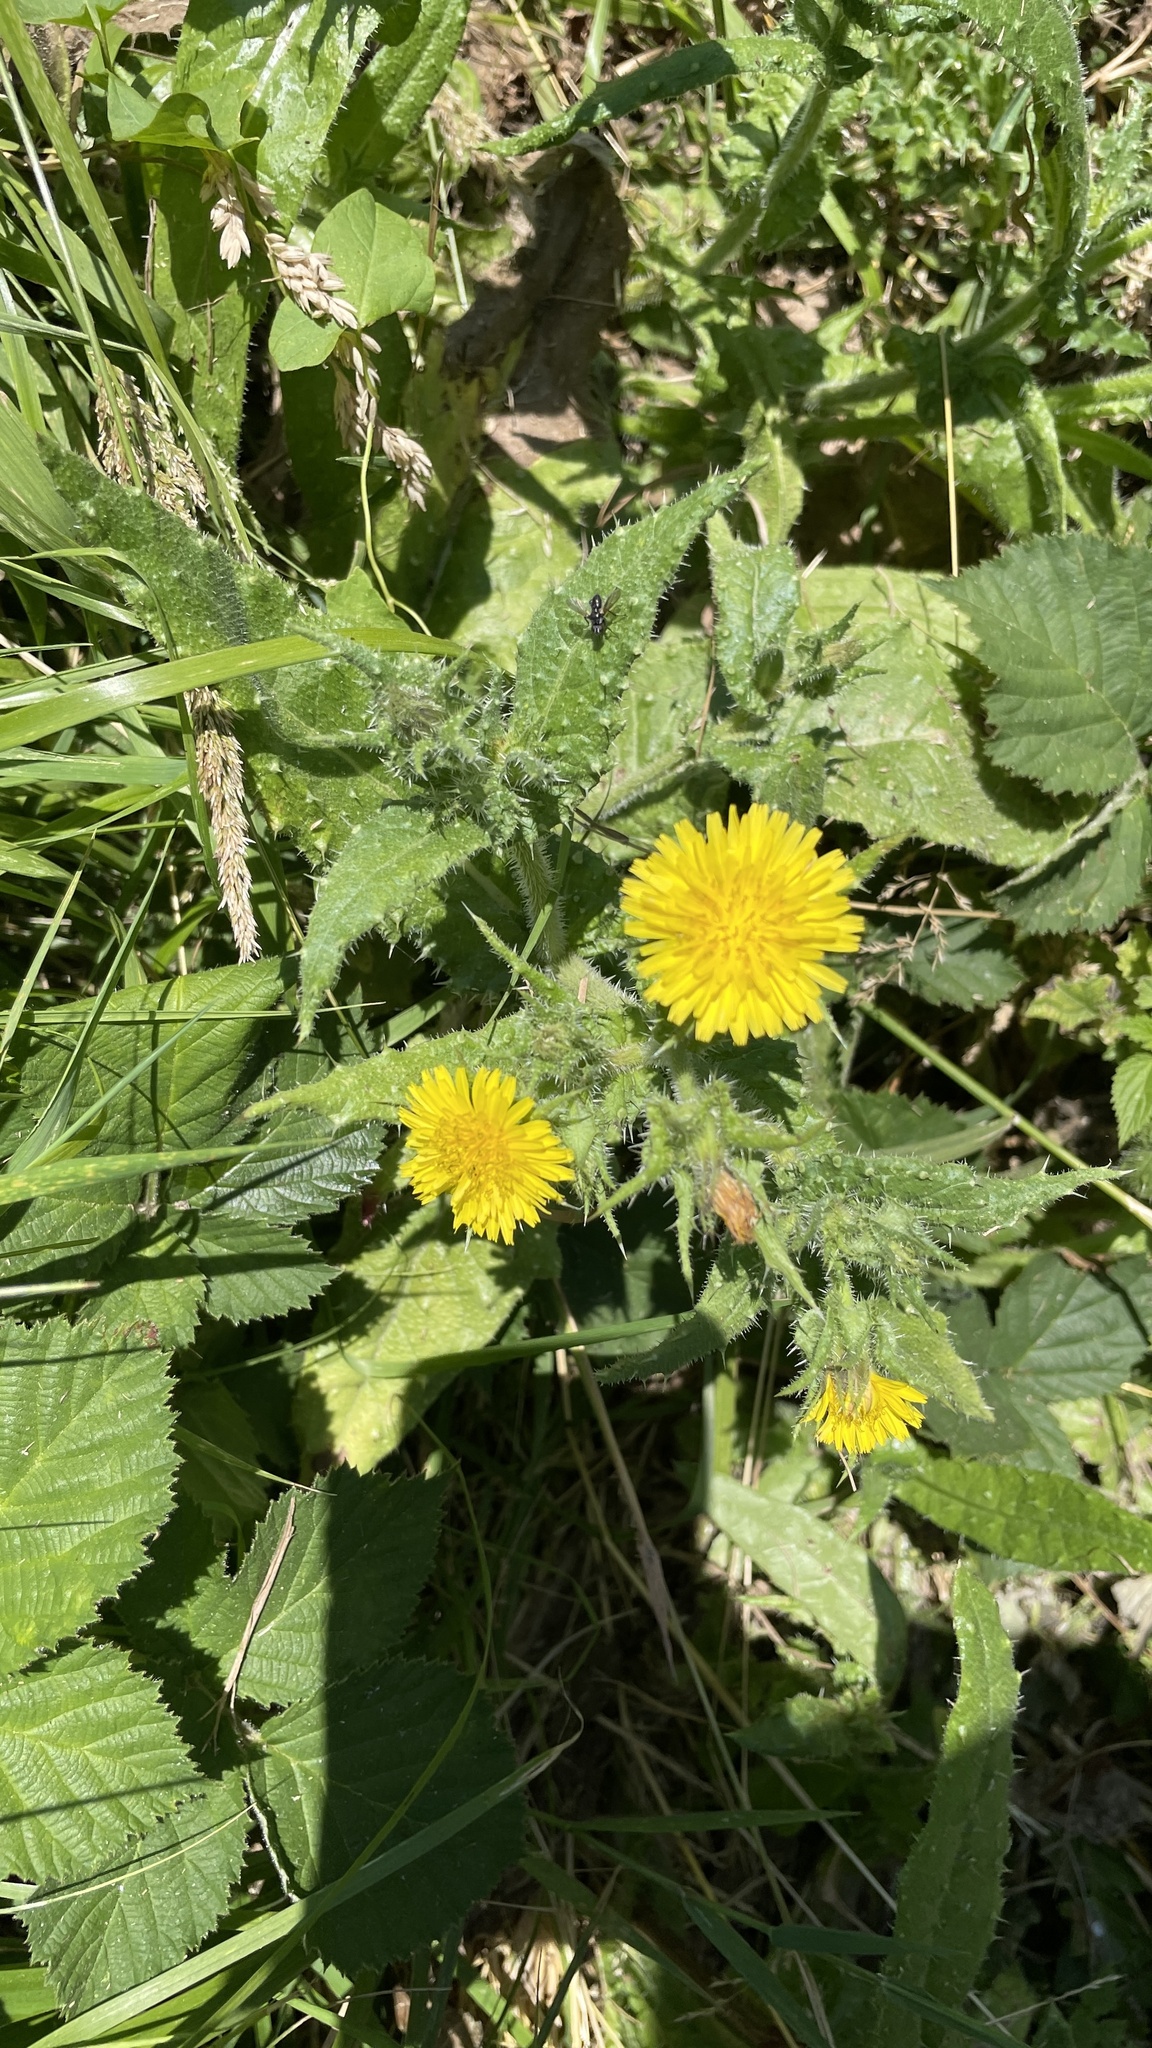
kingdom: Plantae
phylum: Tracheophyta
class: Magnoliopsida
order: Asterales
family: Asteraceae
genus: Helminthotheca
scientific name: Helminthotheca echioides
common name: Ox-tongue
